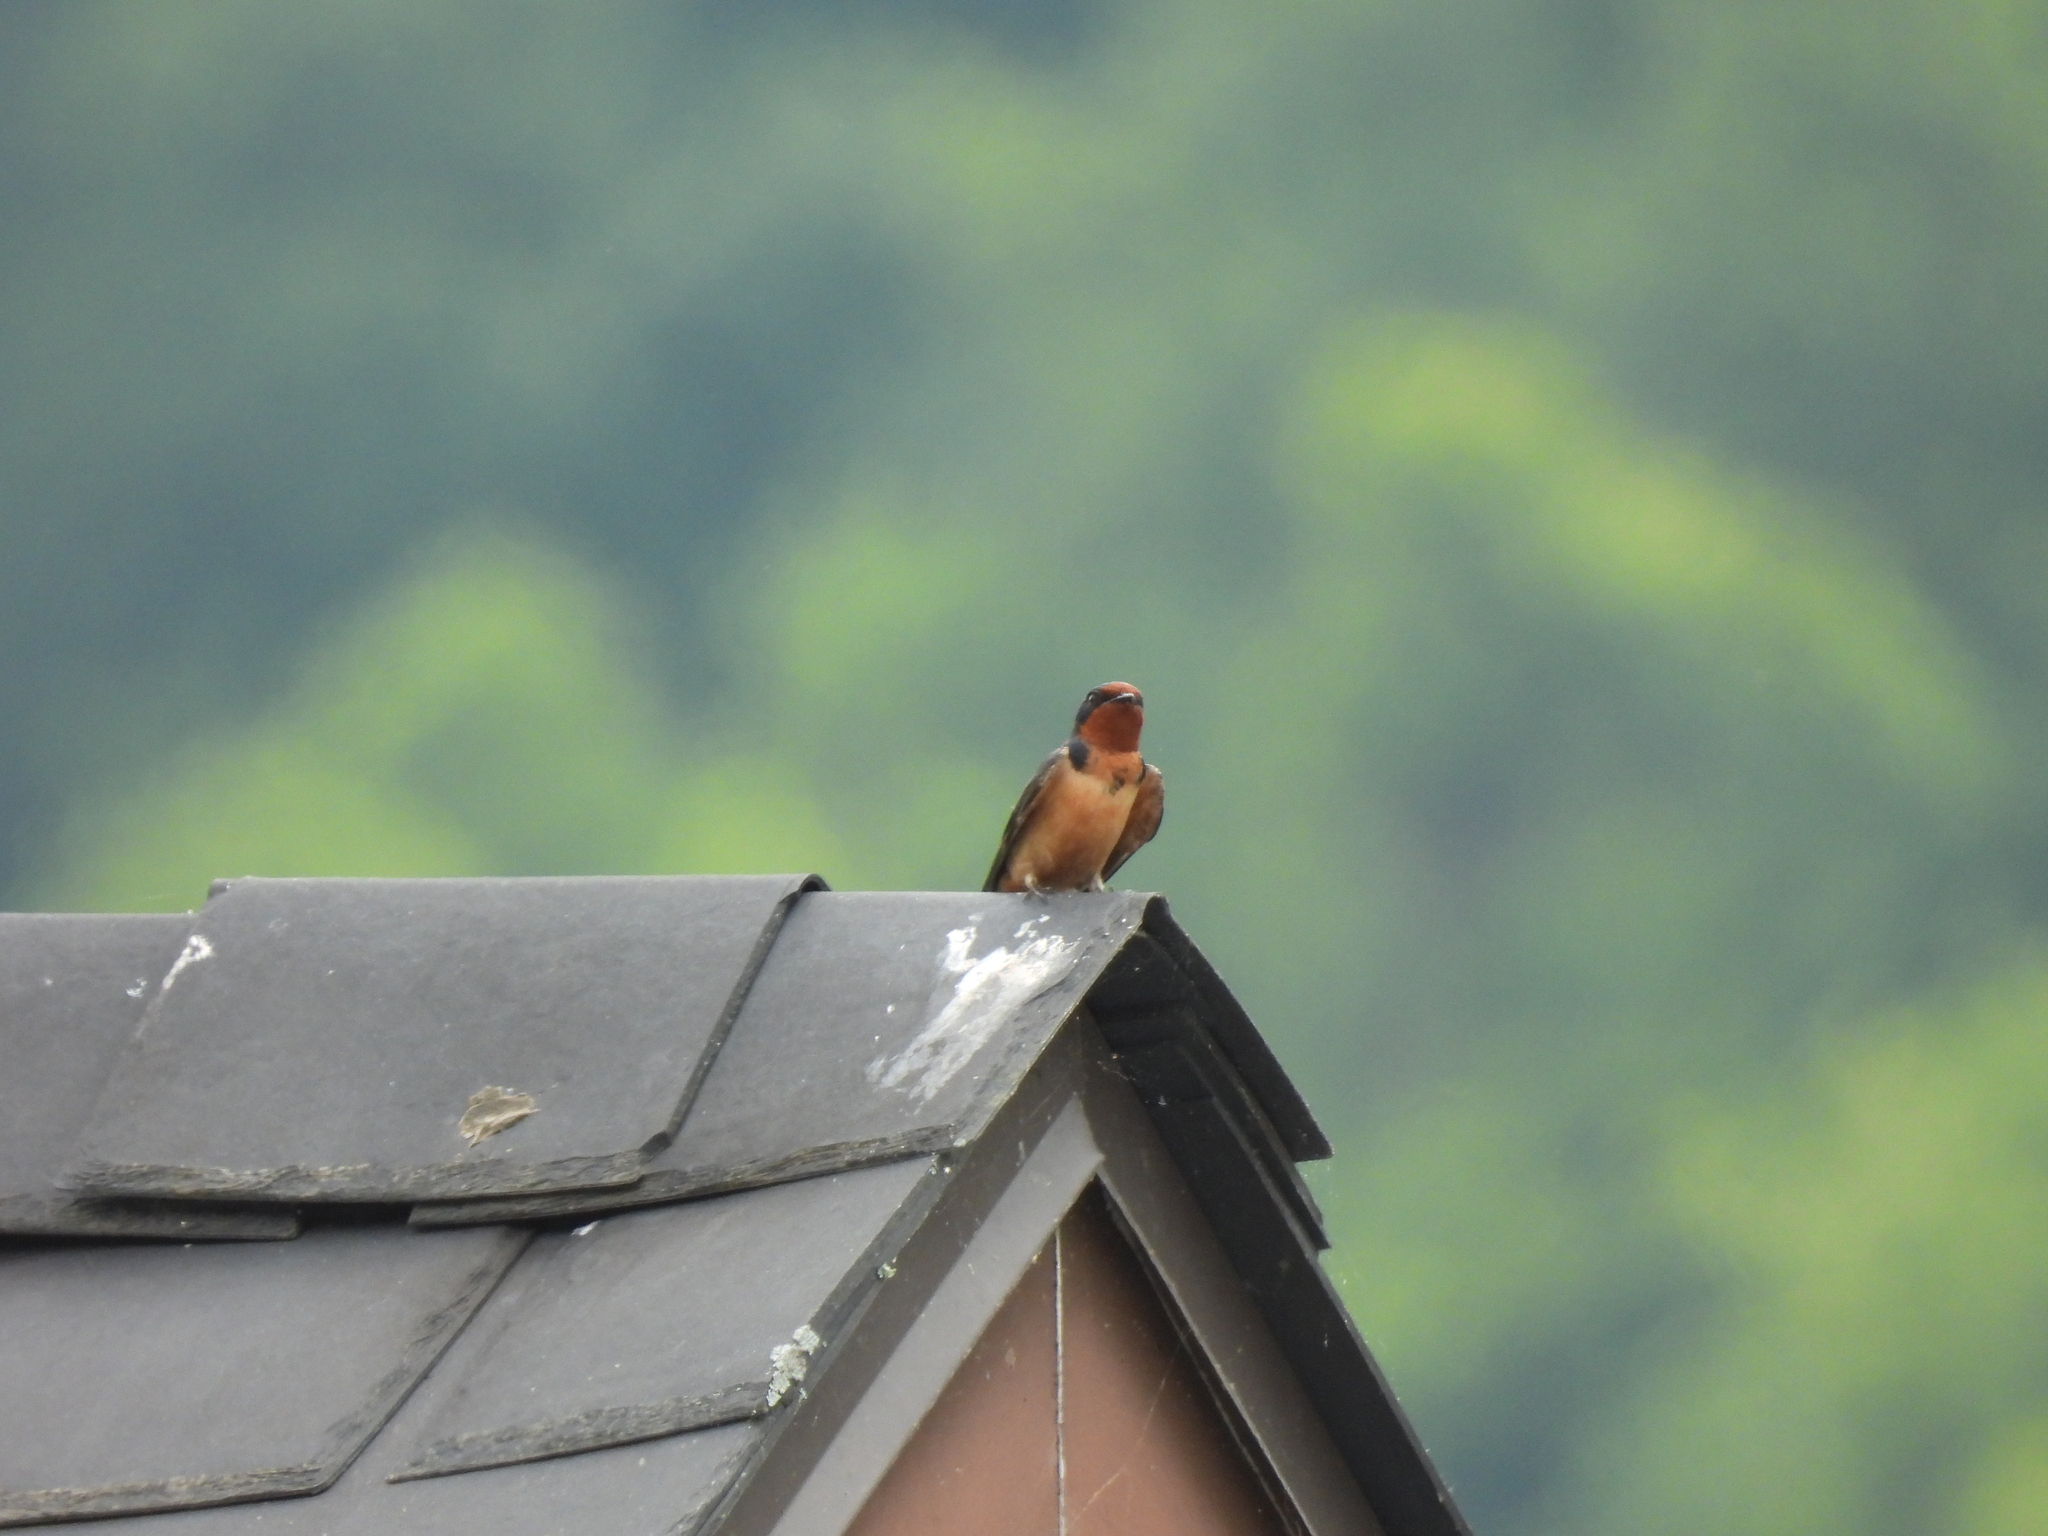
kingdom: Animalia
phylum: Chordata
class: Aves
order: Passeriformes
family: Hirundinidae
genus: Hirundo
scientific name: Hirundo rustica
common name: Barn swallow
